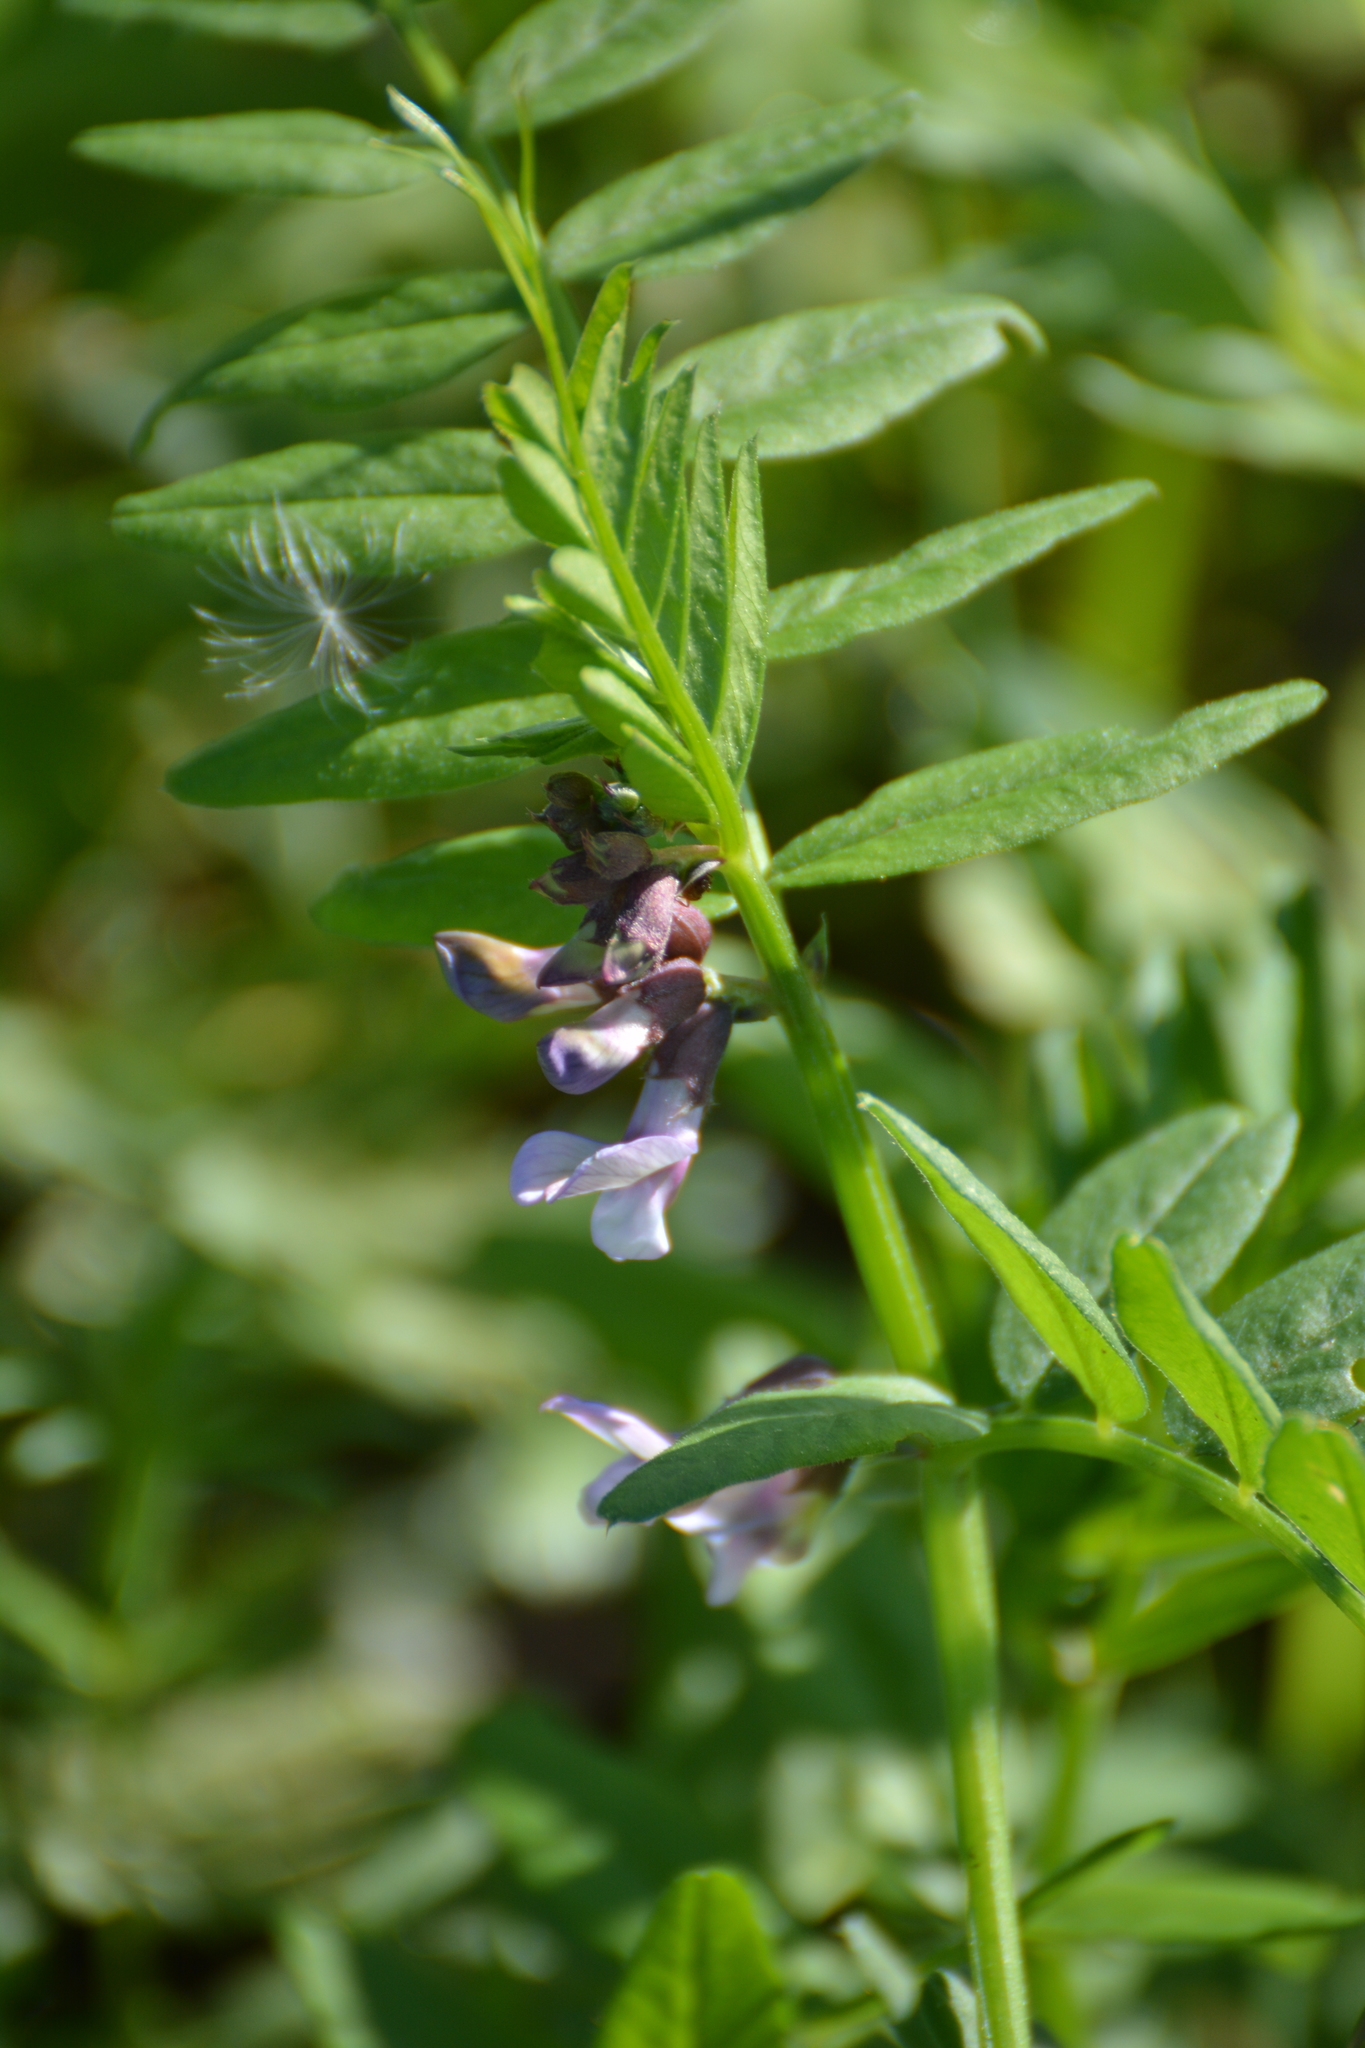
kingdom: Plantae
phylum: Tracheophyta
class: Magnoliopsida
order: Fabales
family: Fabaceae
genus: Vicia
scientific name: Vicia sepium
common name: Bush vetch
